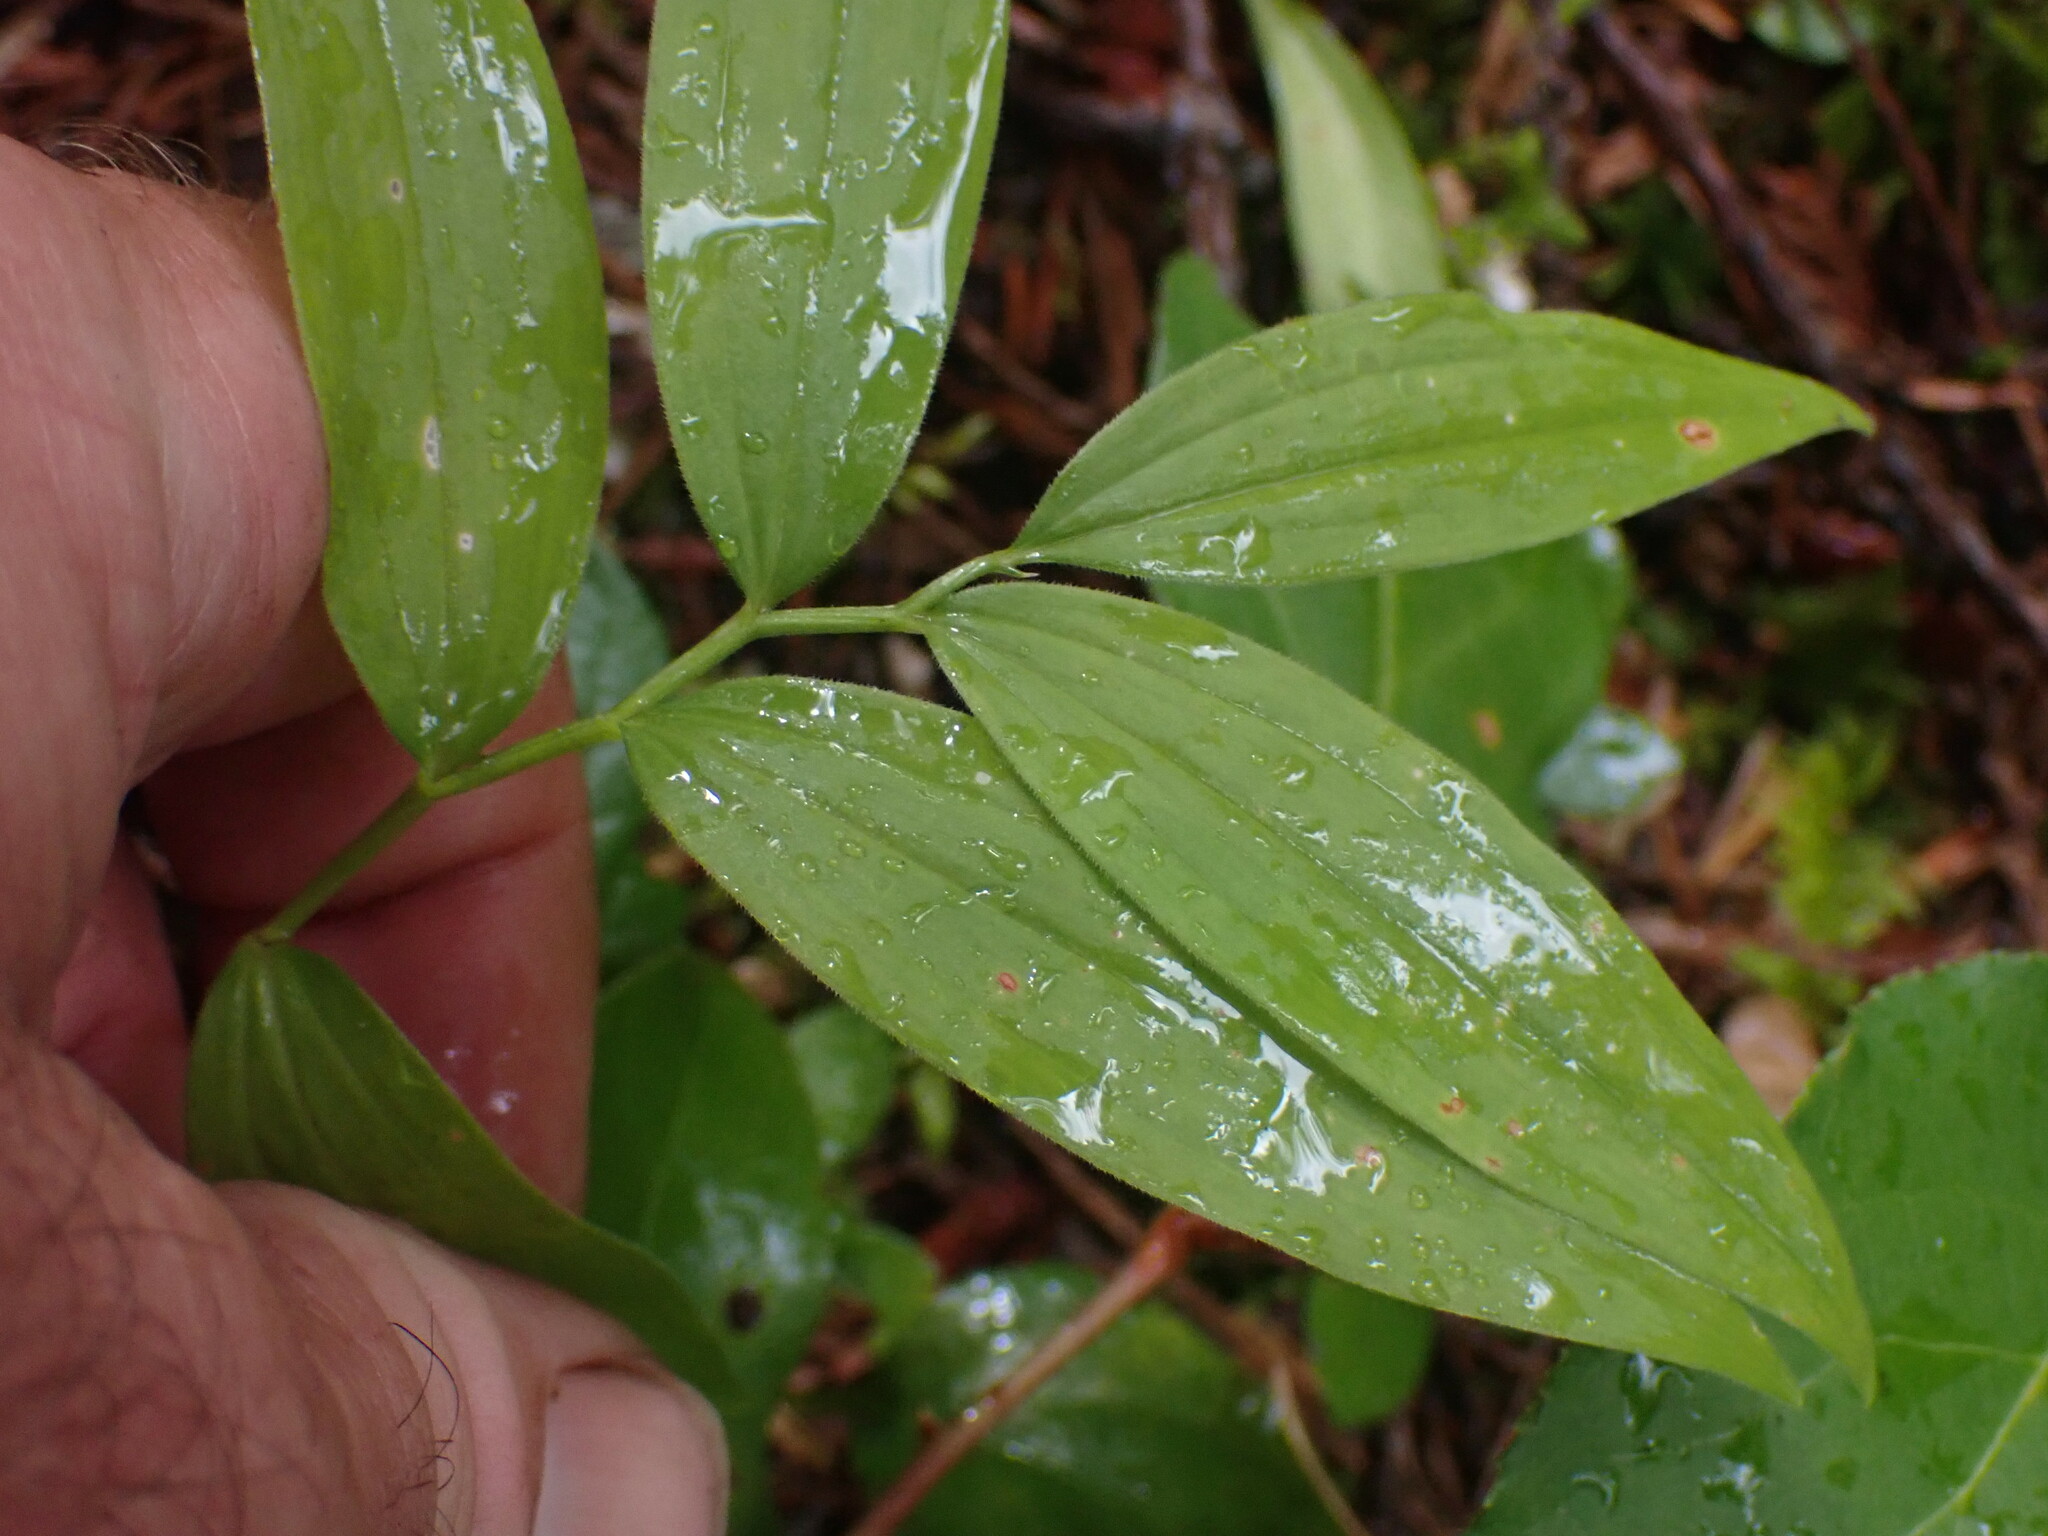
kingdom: Plantae
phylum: Tracheophyta
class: Liliopsida
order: Asparagales
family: Asparagaceae
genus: Maianthemum
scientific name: Maianthemum stellatum
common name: Little false solomon's seal
